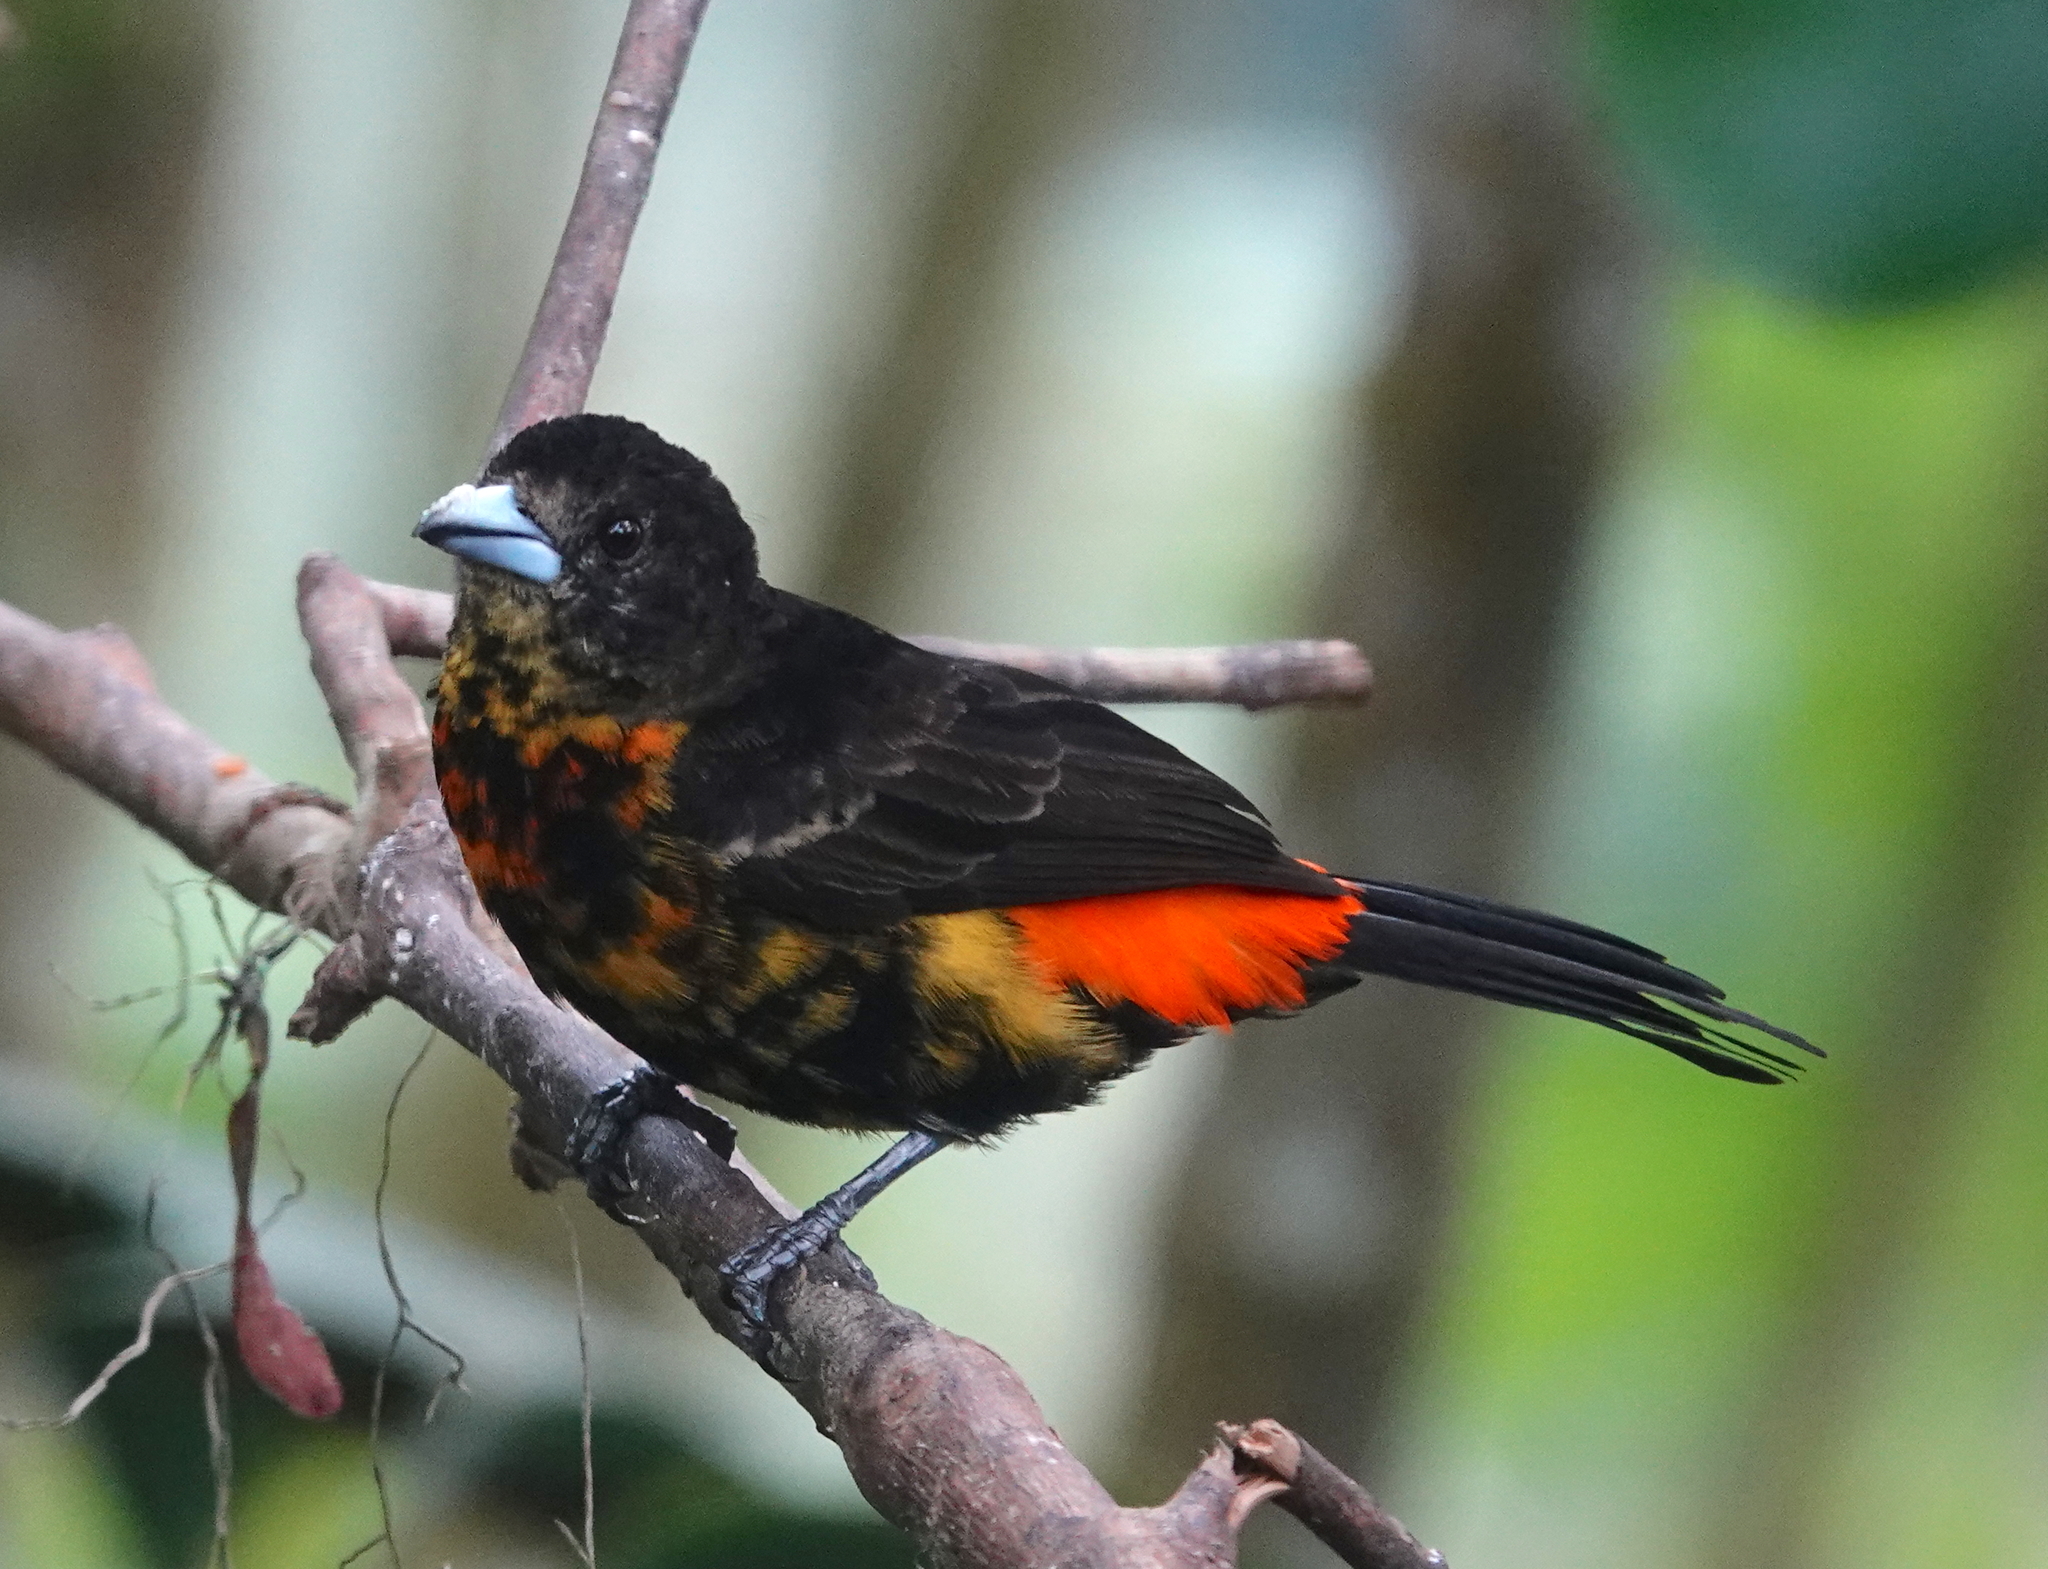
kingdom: Animalia
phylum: Chordata
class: Aves
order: Passeriformes
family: Thraupidae
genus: Ramphocelus
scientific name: Ramphocelus flammigerus
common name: Flame-rumped tanager
